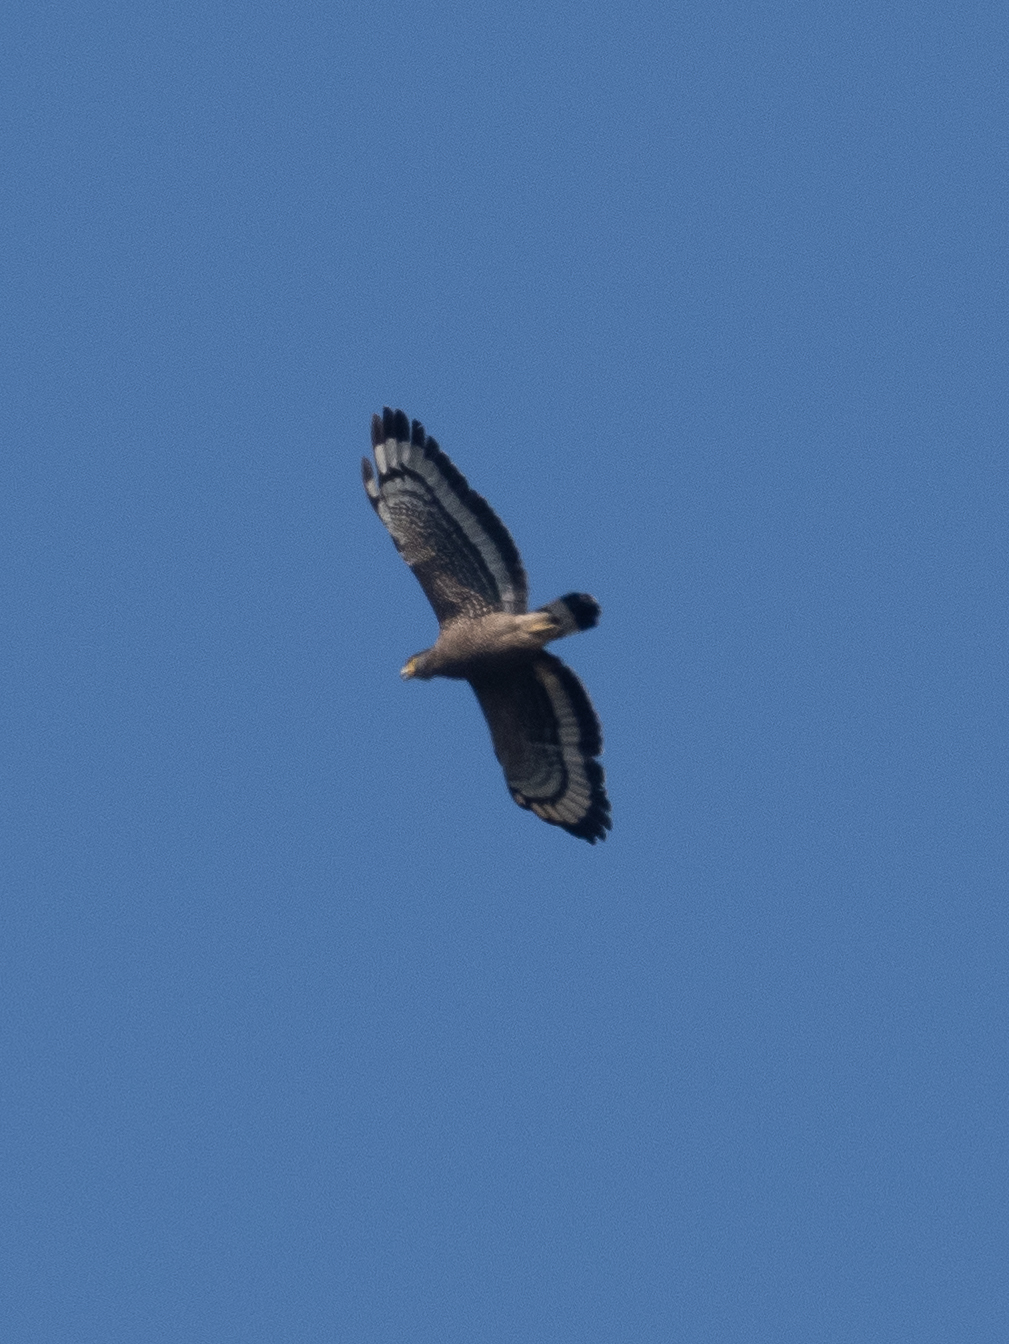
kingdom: Animalia
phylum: Chordata
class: Aves
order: Accipitriformes
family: Accipitridae
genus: Spilornis
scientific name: Spilornis cheela
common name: Crested serpent eagle
